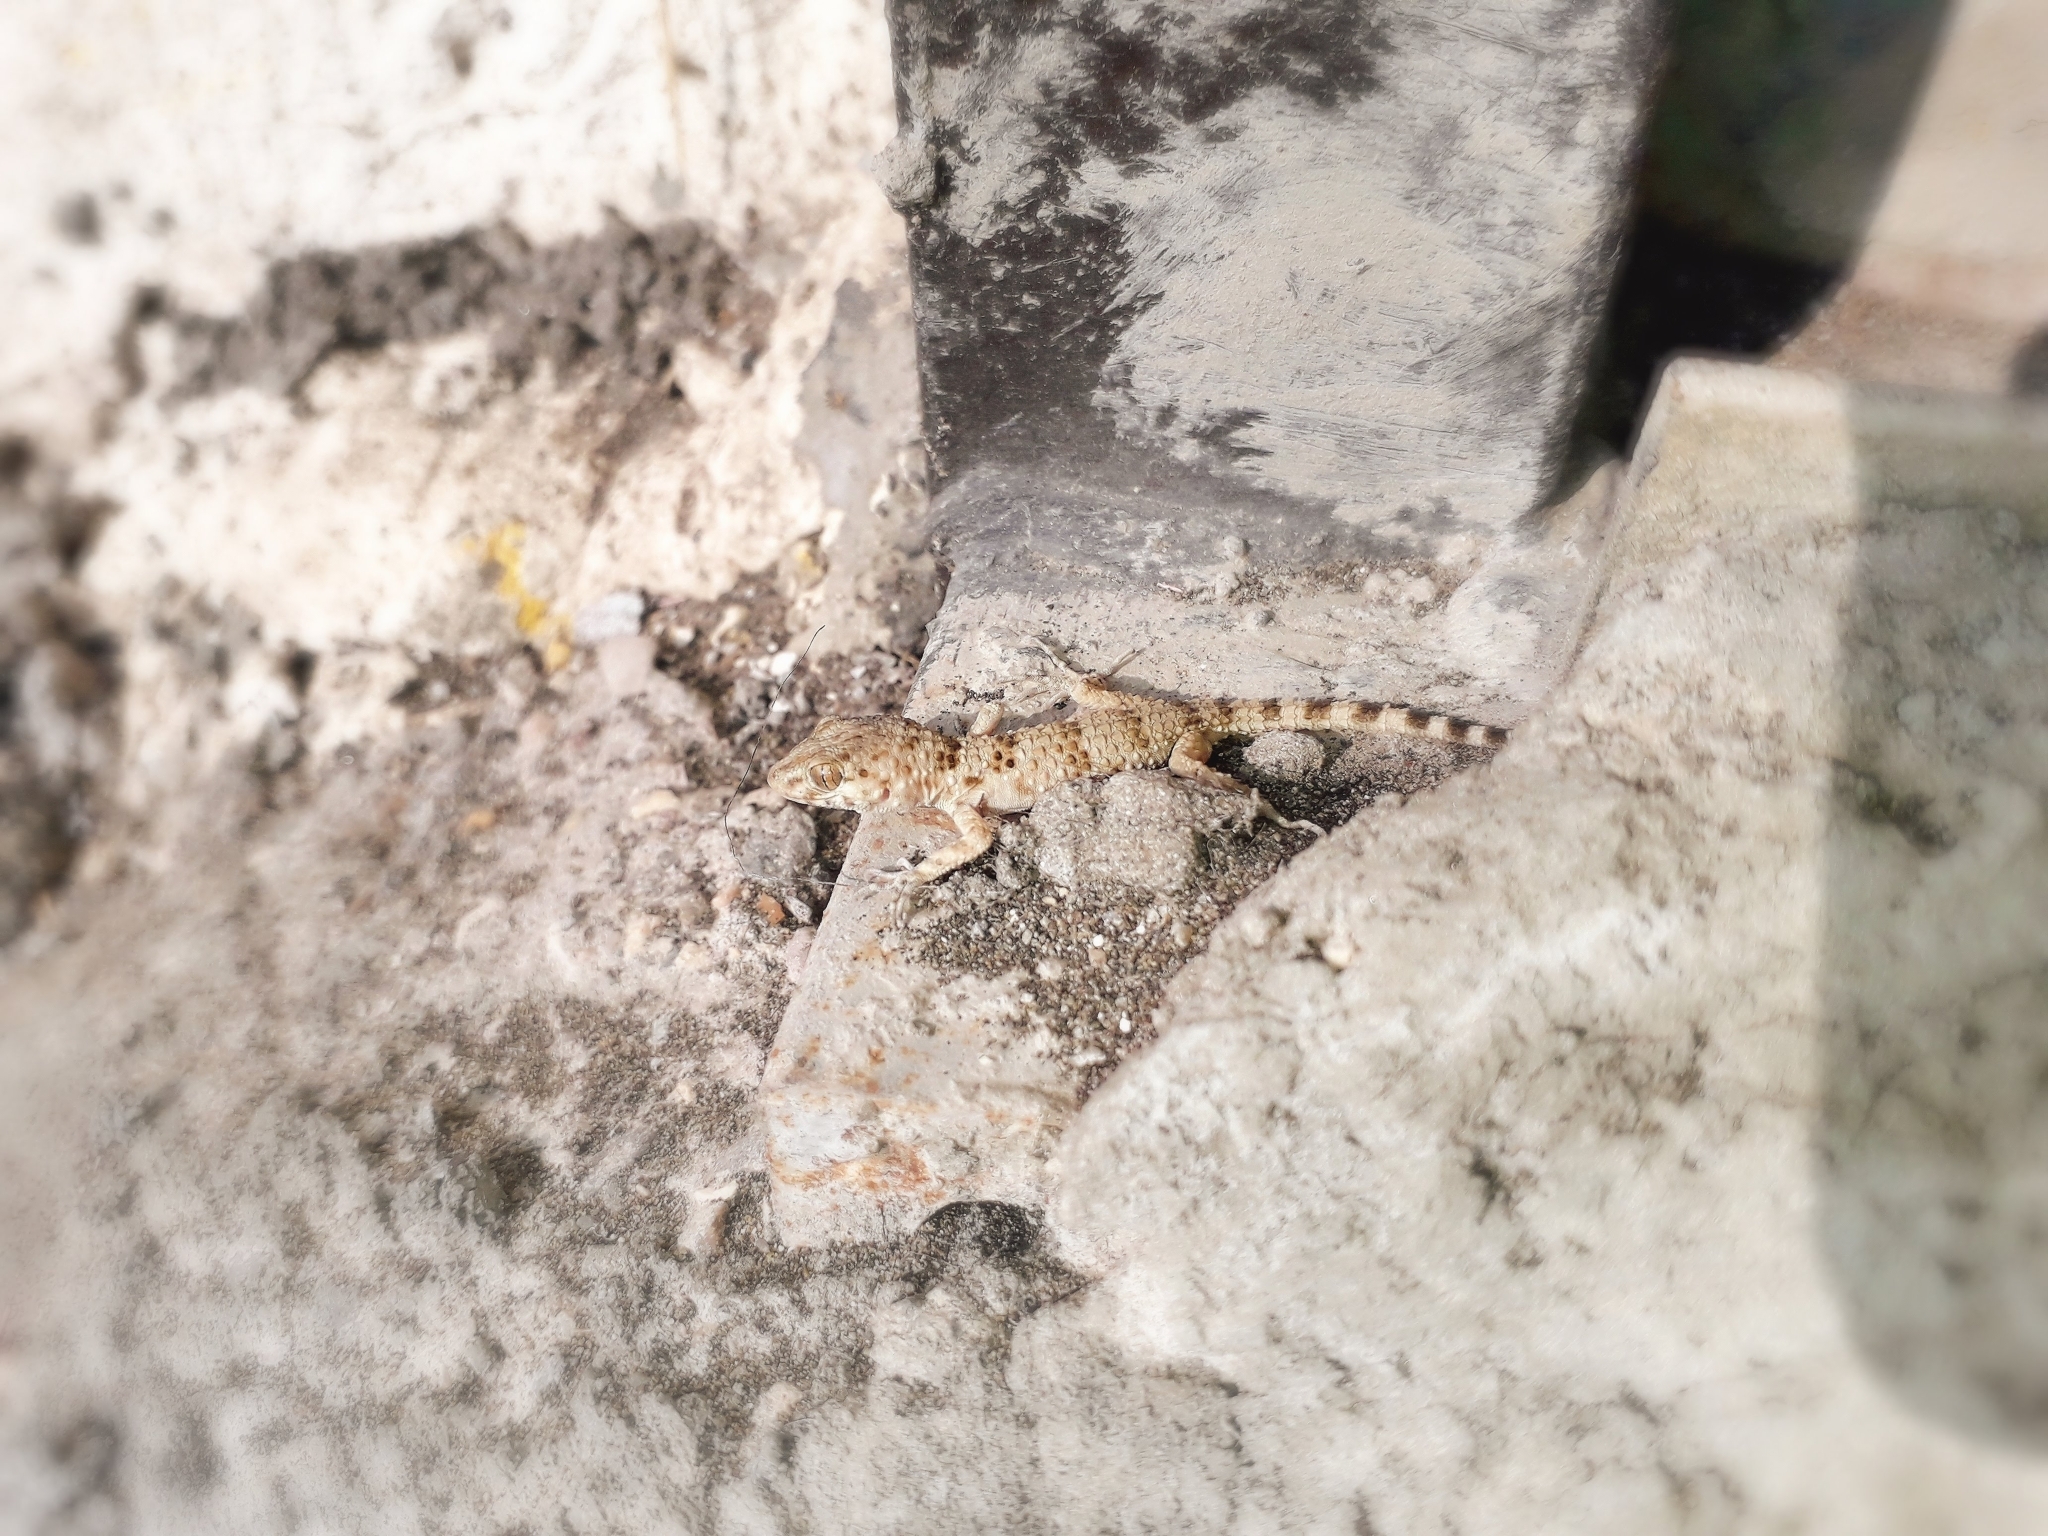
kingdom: Animalia
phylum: Chordata
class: Squamata
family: Gekkonidae
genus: Tenuidactylus
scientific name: Tenuidactylus caspius
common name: Caspian bent-toed gecko
